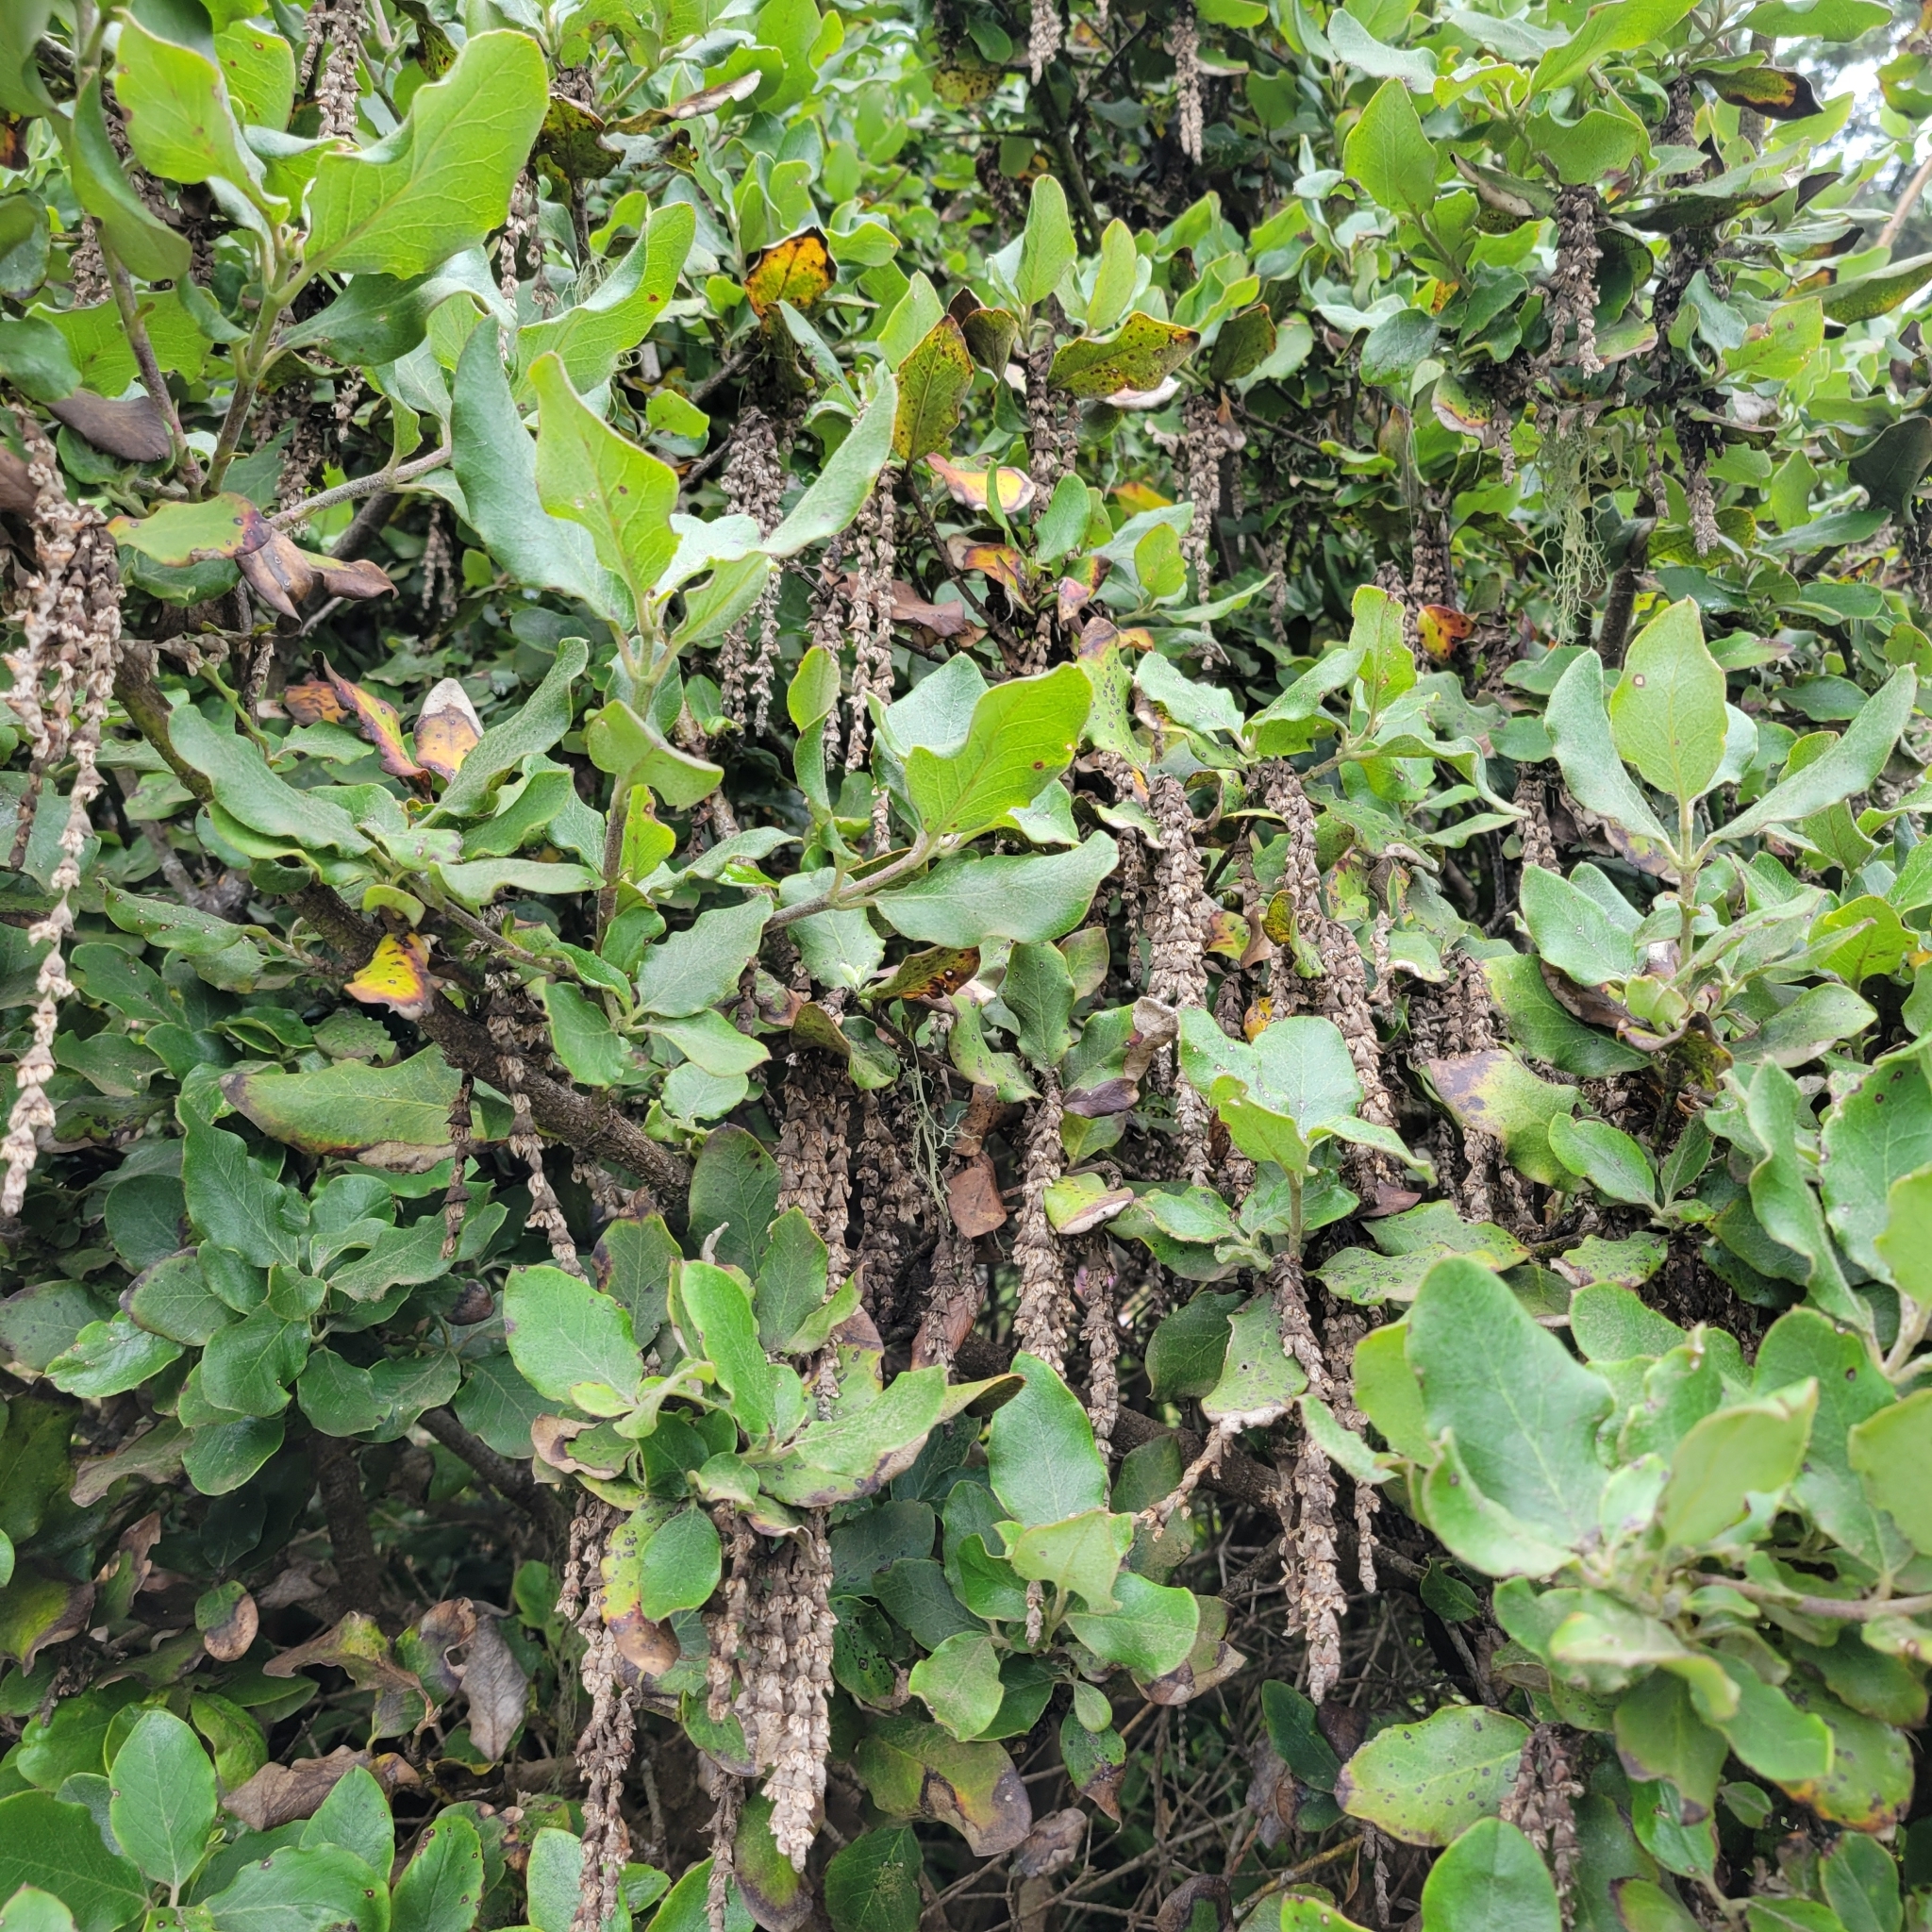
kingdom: Plantae
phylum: Tracheophyta
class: Magnoliopsida
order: Garryales
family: Garryaceae
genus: Garrya
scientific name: Garrya elliptica
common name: Silk-tassel
